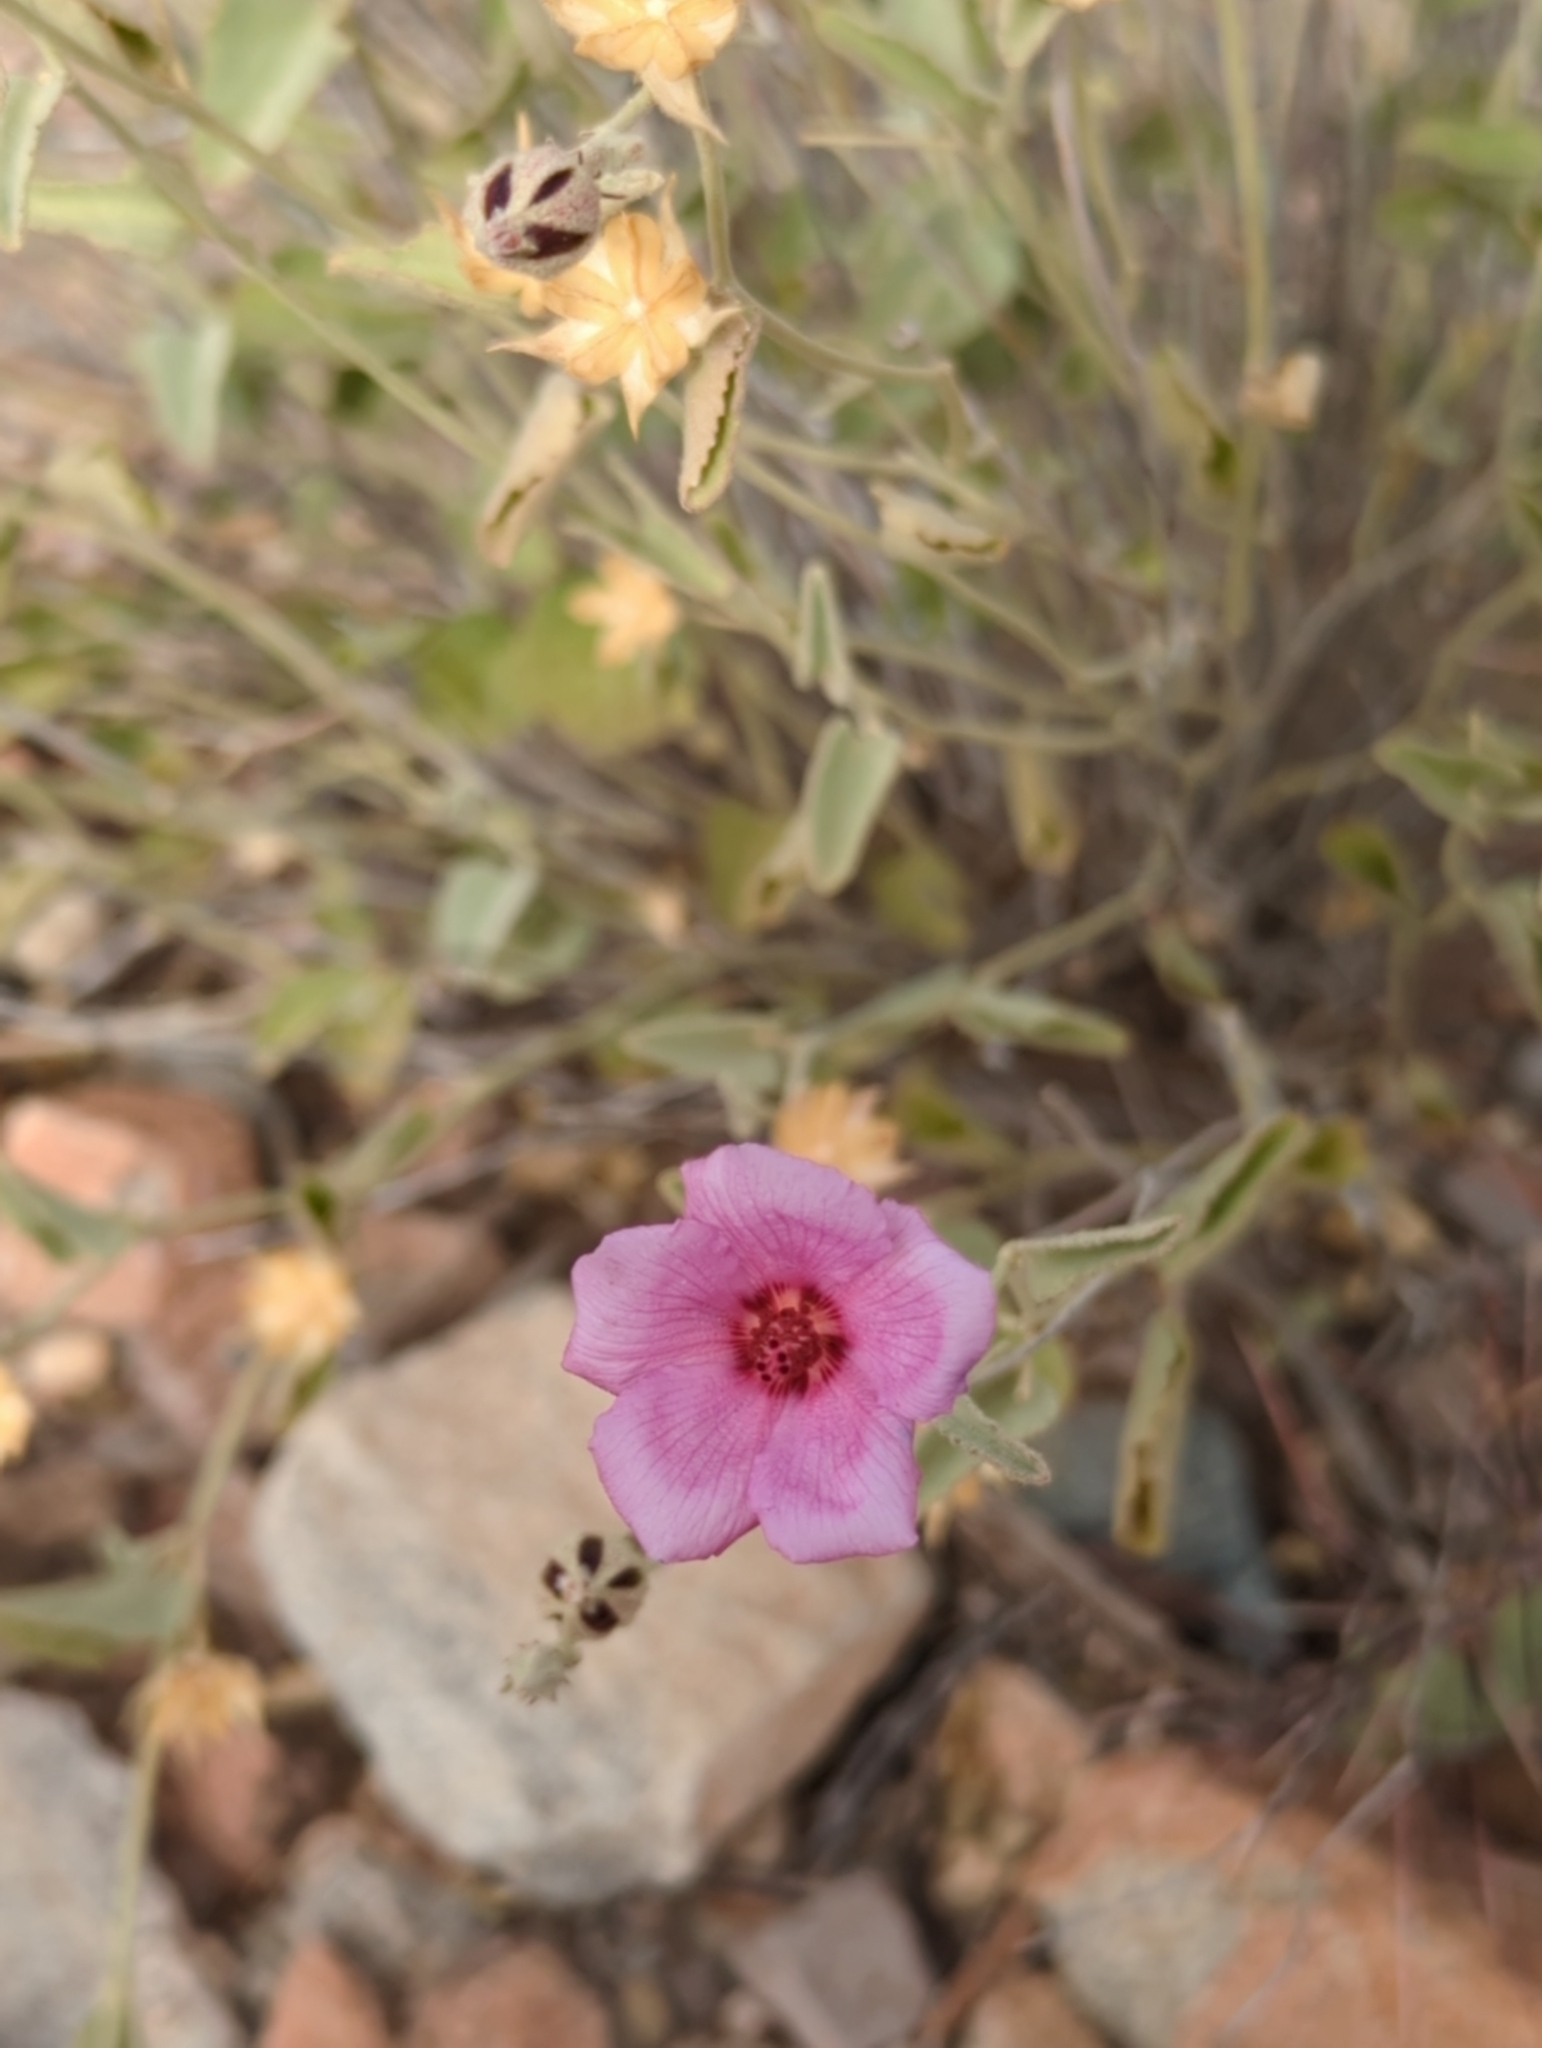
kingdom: Plantae
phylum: Tracheophyta
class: Magnoliopsida
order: Malvales
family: Malvaceae
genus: Hibiscus
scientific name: Hibiscus denudatus
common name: Paleface
